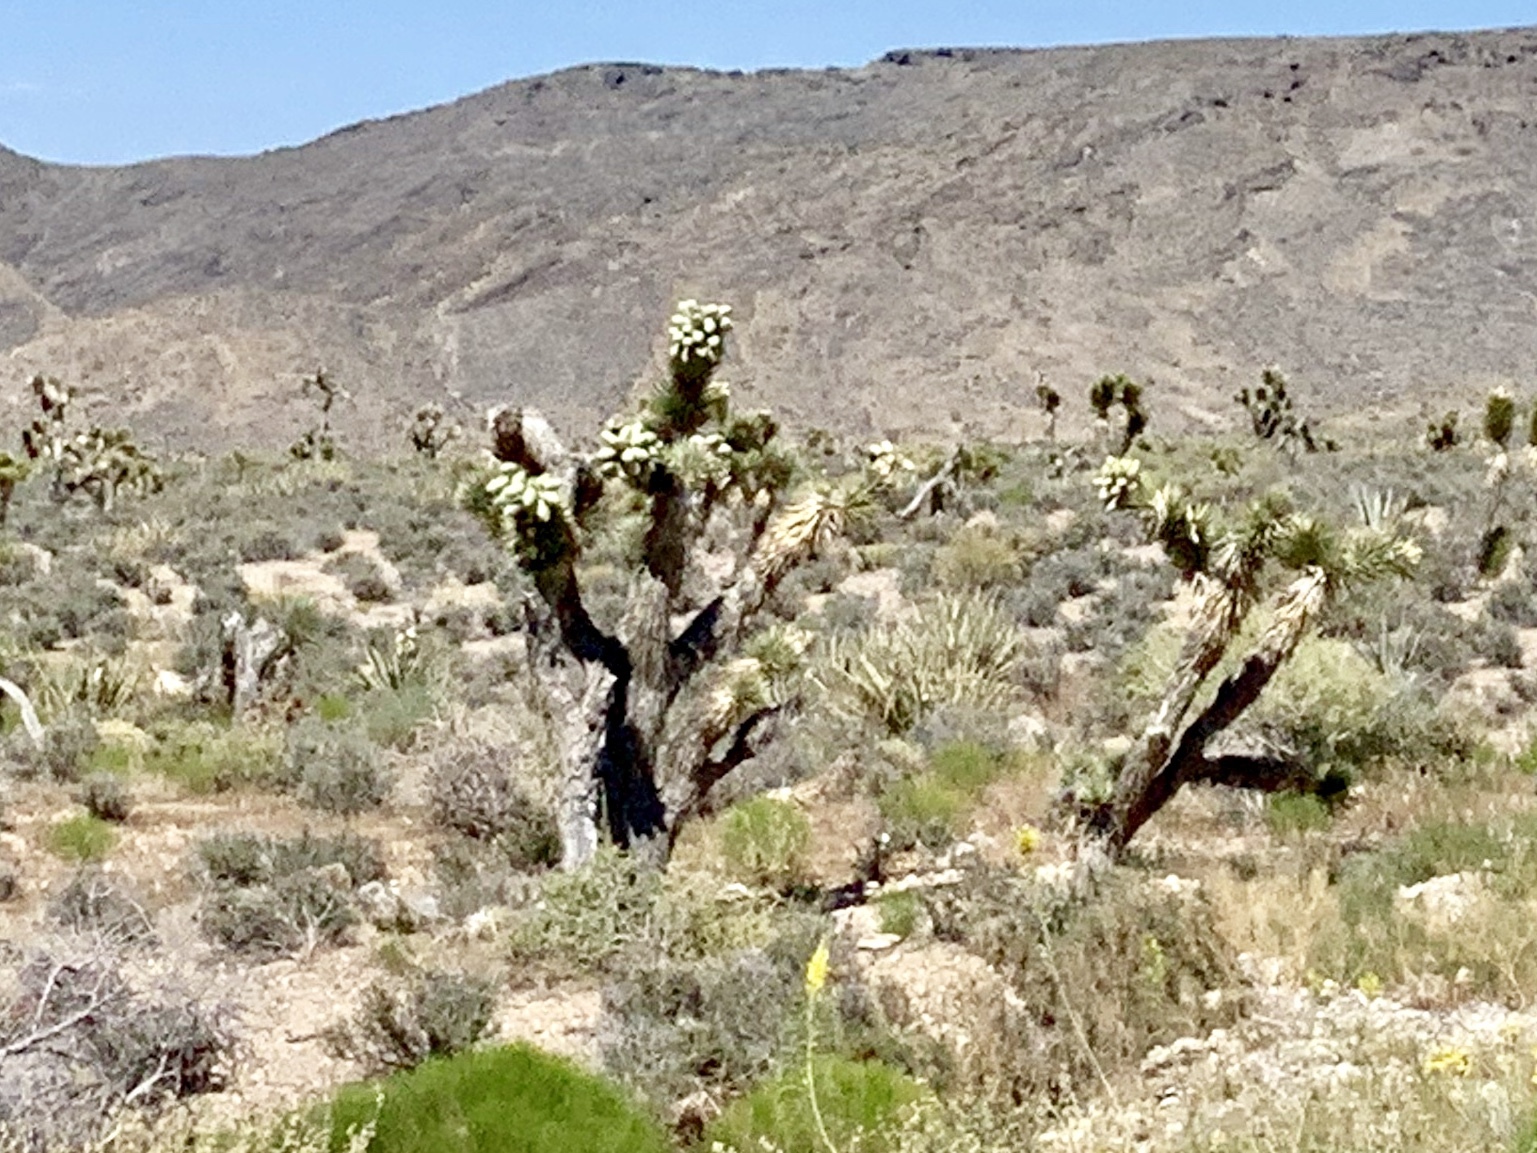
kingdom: Plantae
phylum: Tracheophyta
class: Liliopsida
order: Asparagales
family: Asparagaceae
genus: Yucca
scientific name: Yucca brevifolia
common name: Joshua tree
